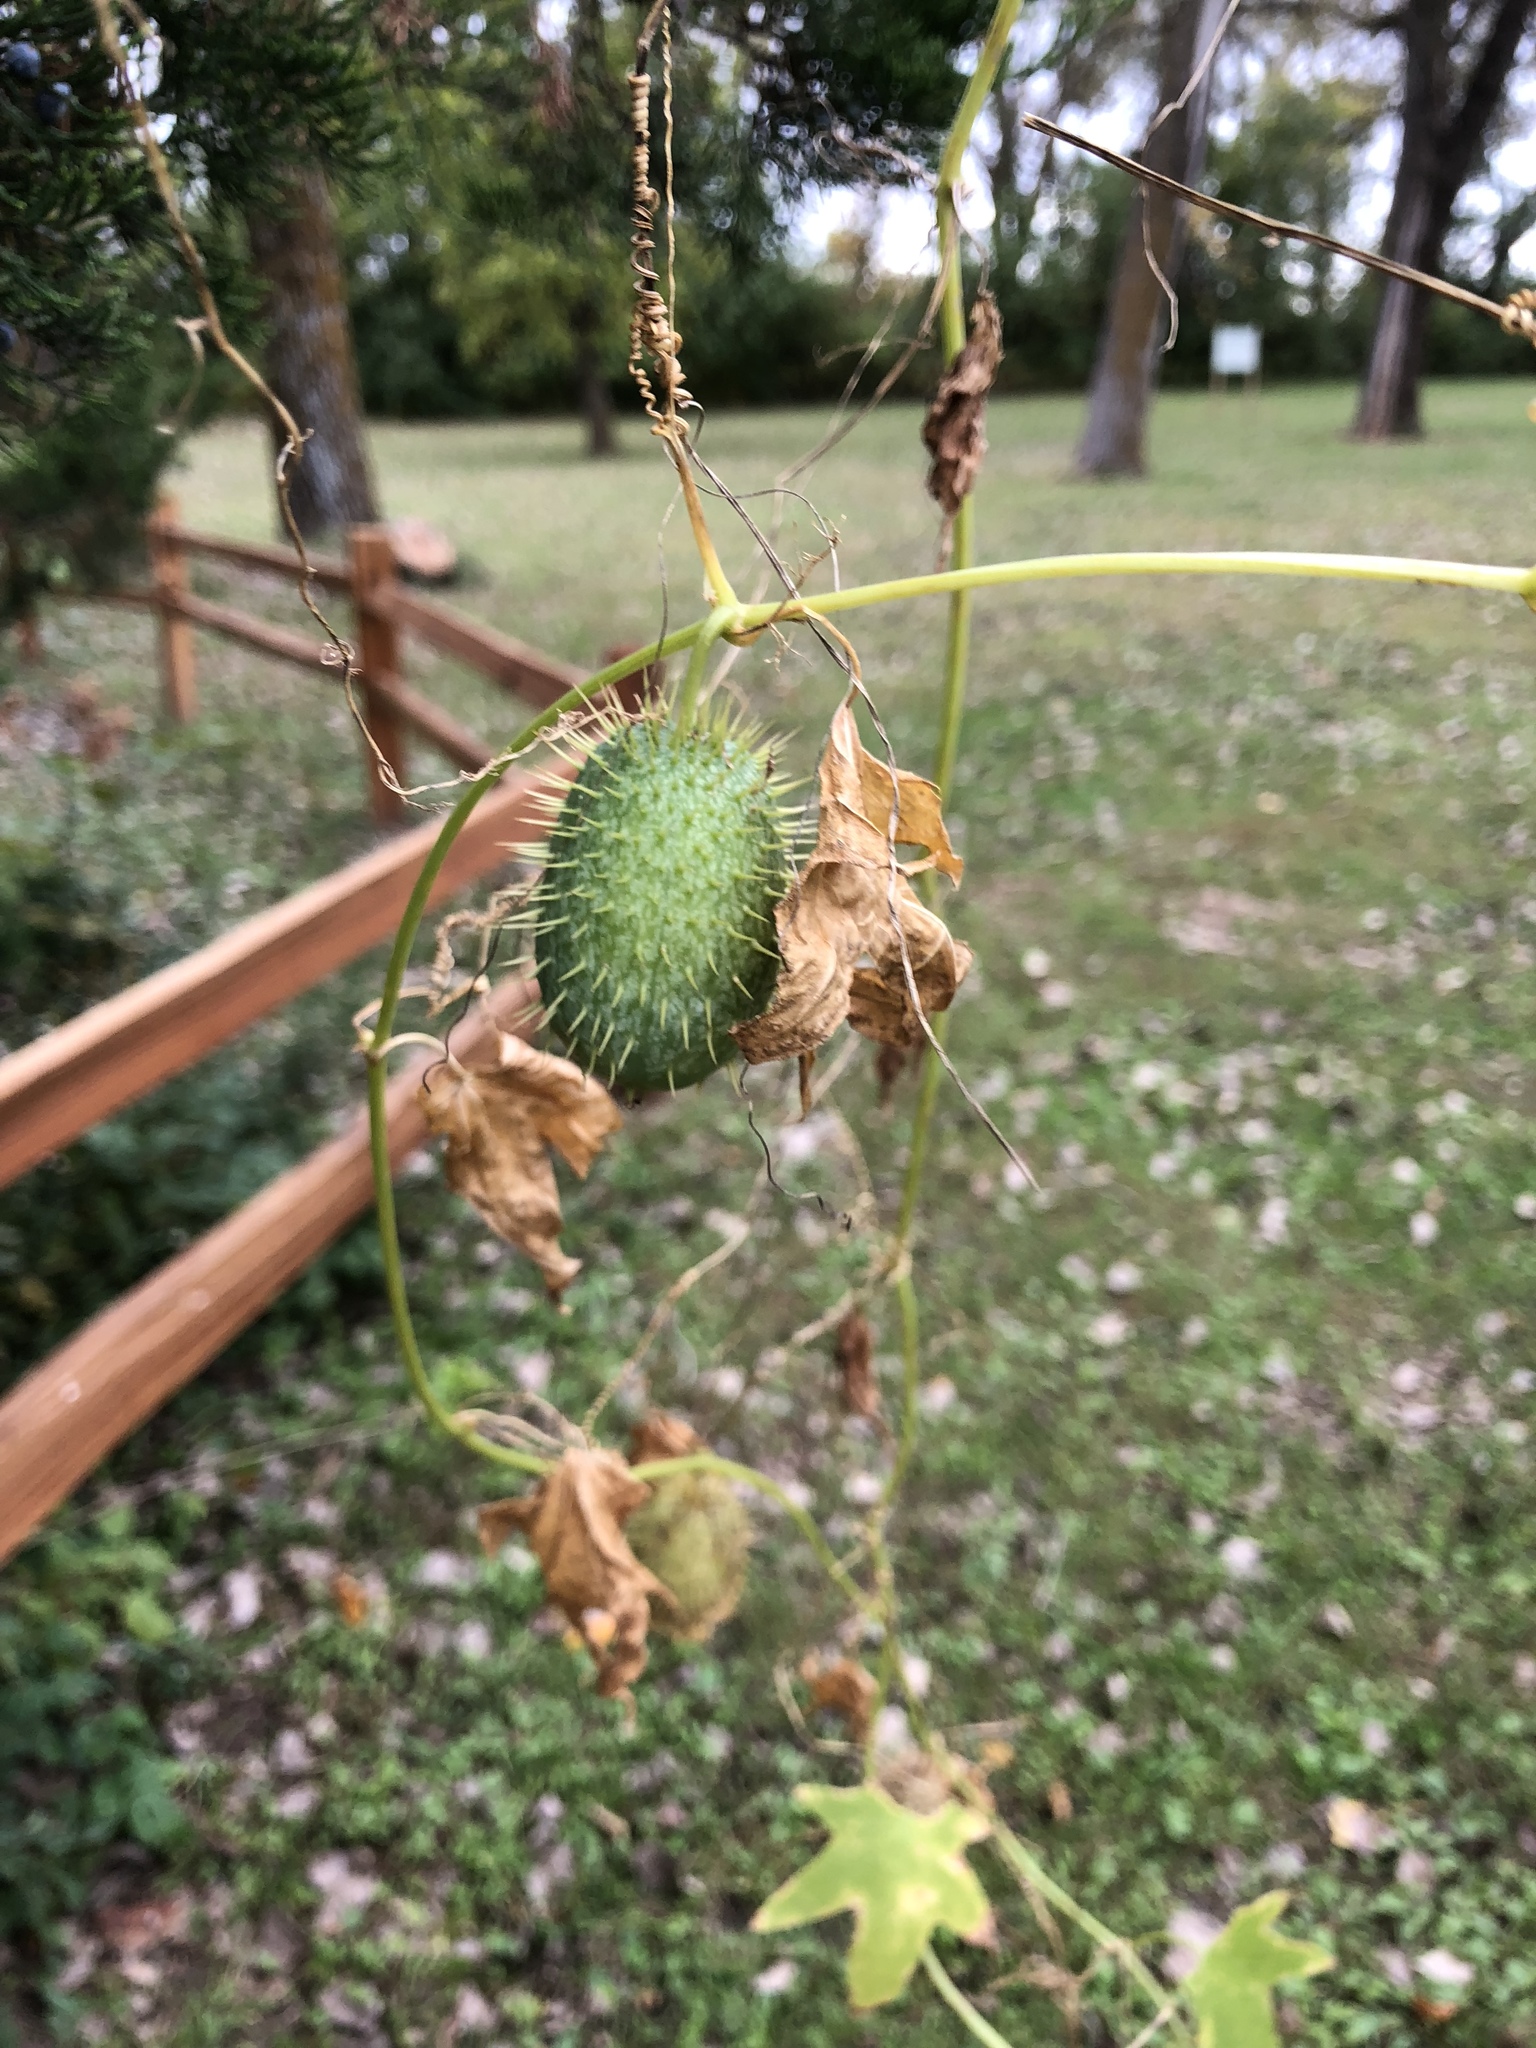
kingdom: Plantae
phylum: Tracheophyta
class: Magnoliopsida
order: Cucurbitales
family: Cucurbitaceae
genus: Echinocystis
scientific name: Echinocystis lobata
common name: Wild cucumber
